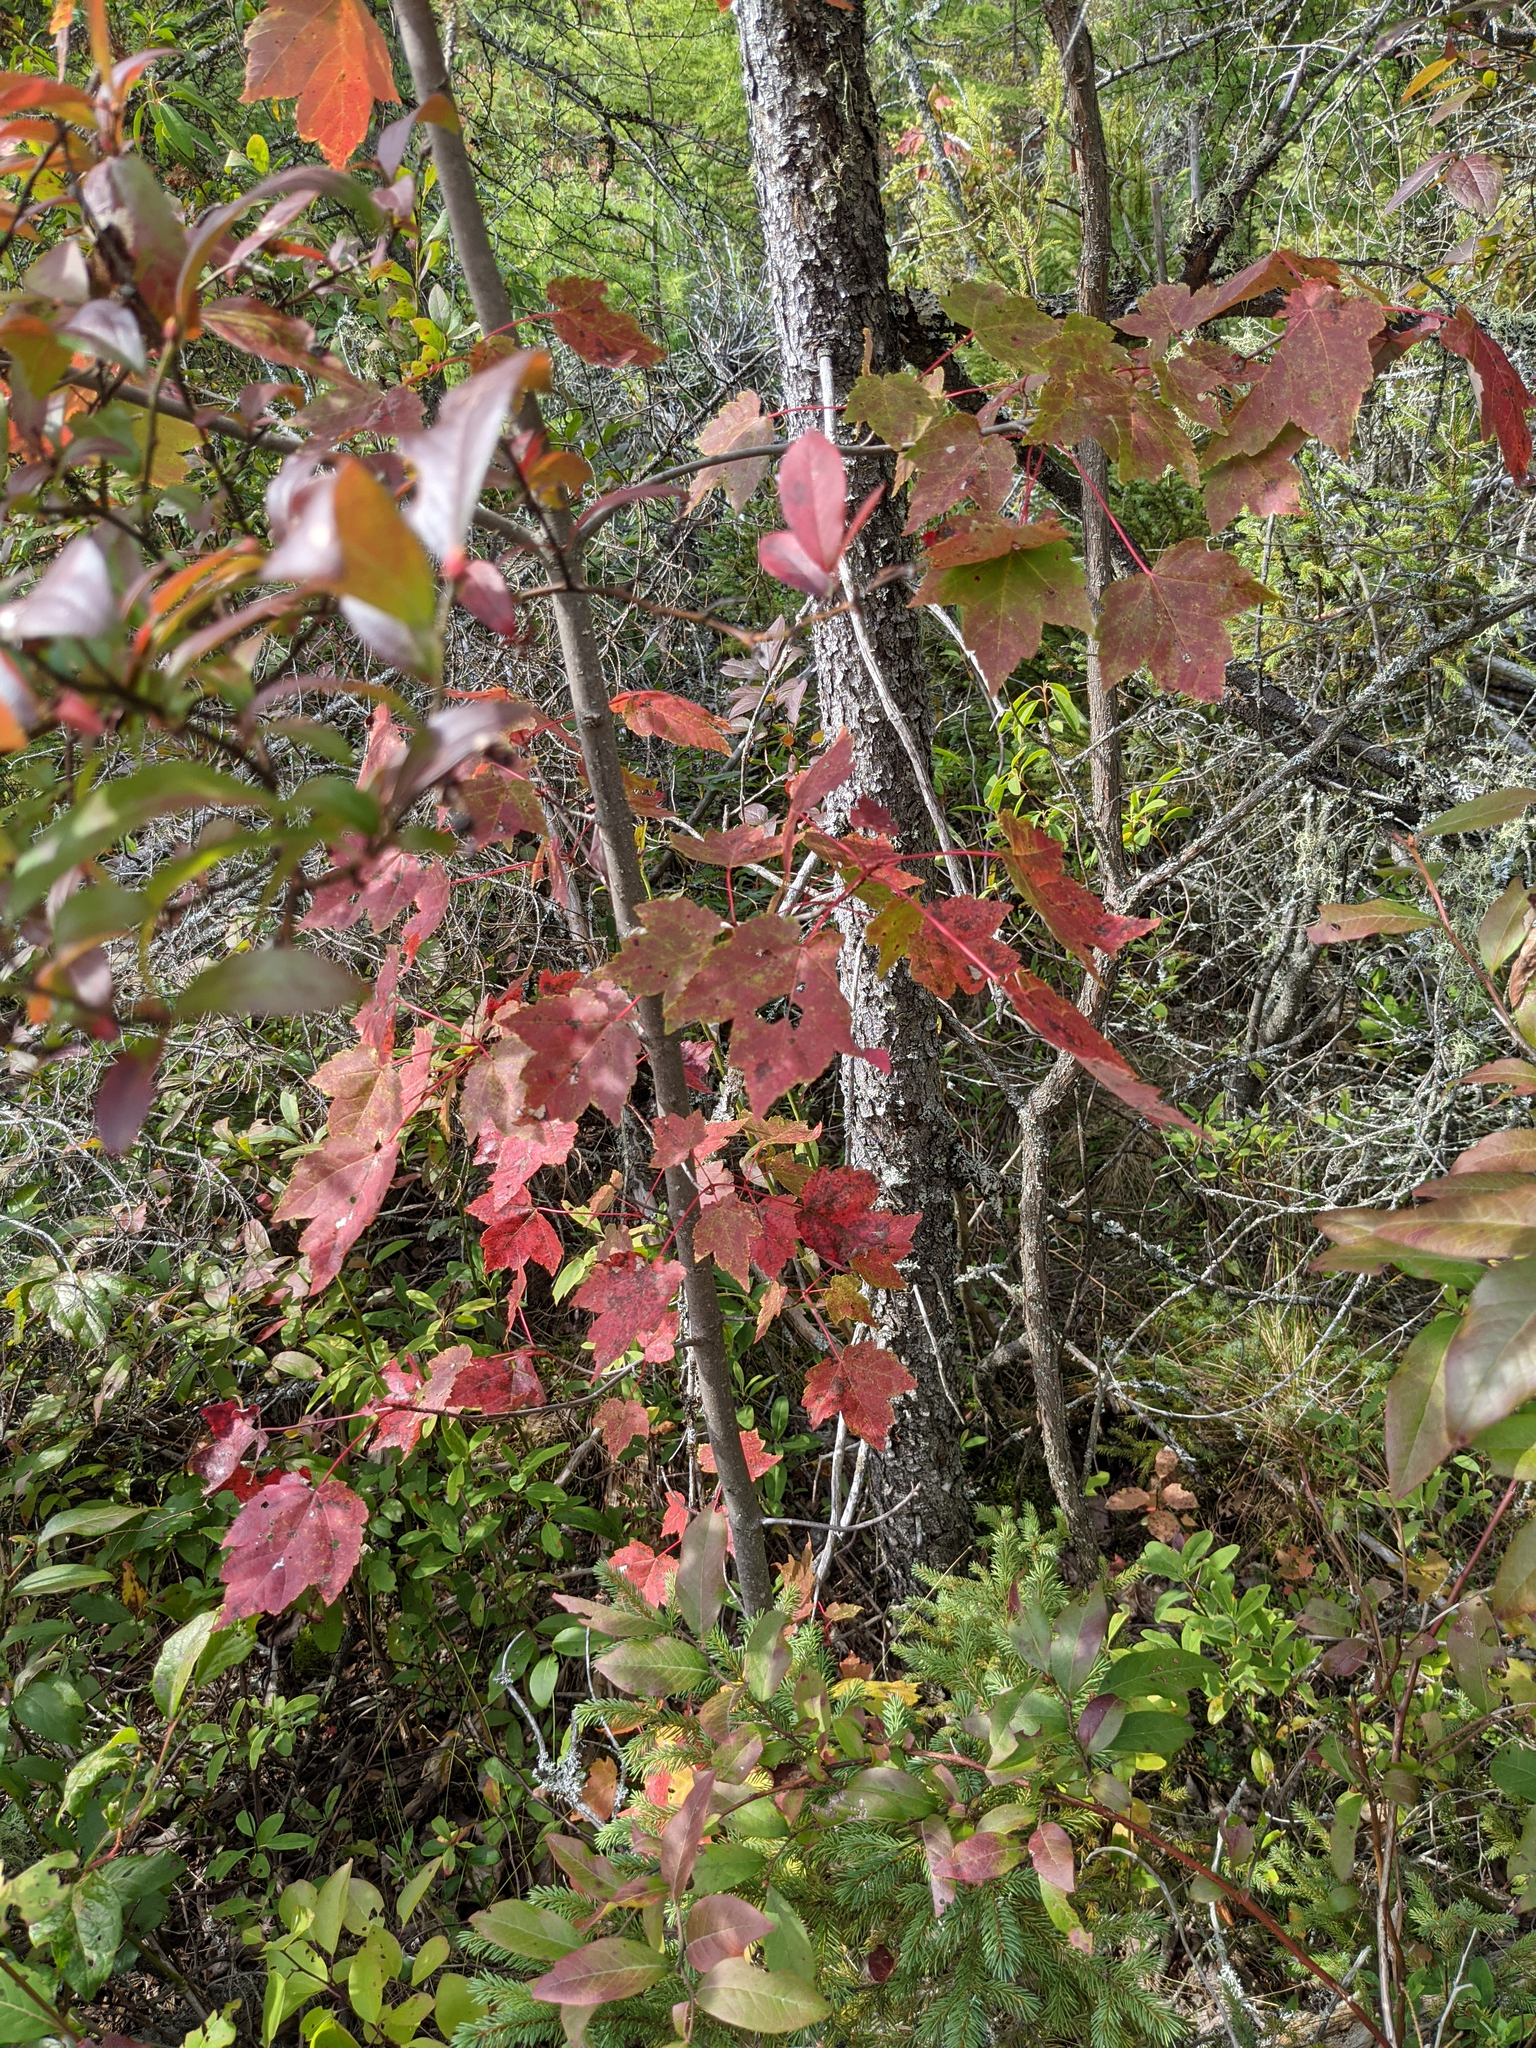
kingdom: Plantae
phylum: Tracheophyta
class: Magnoliopsida
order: Sapindales
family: Sapindaceae
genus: Acer
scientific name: Acer rubrum
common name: Red maple
